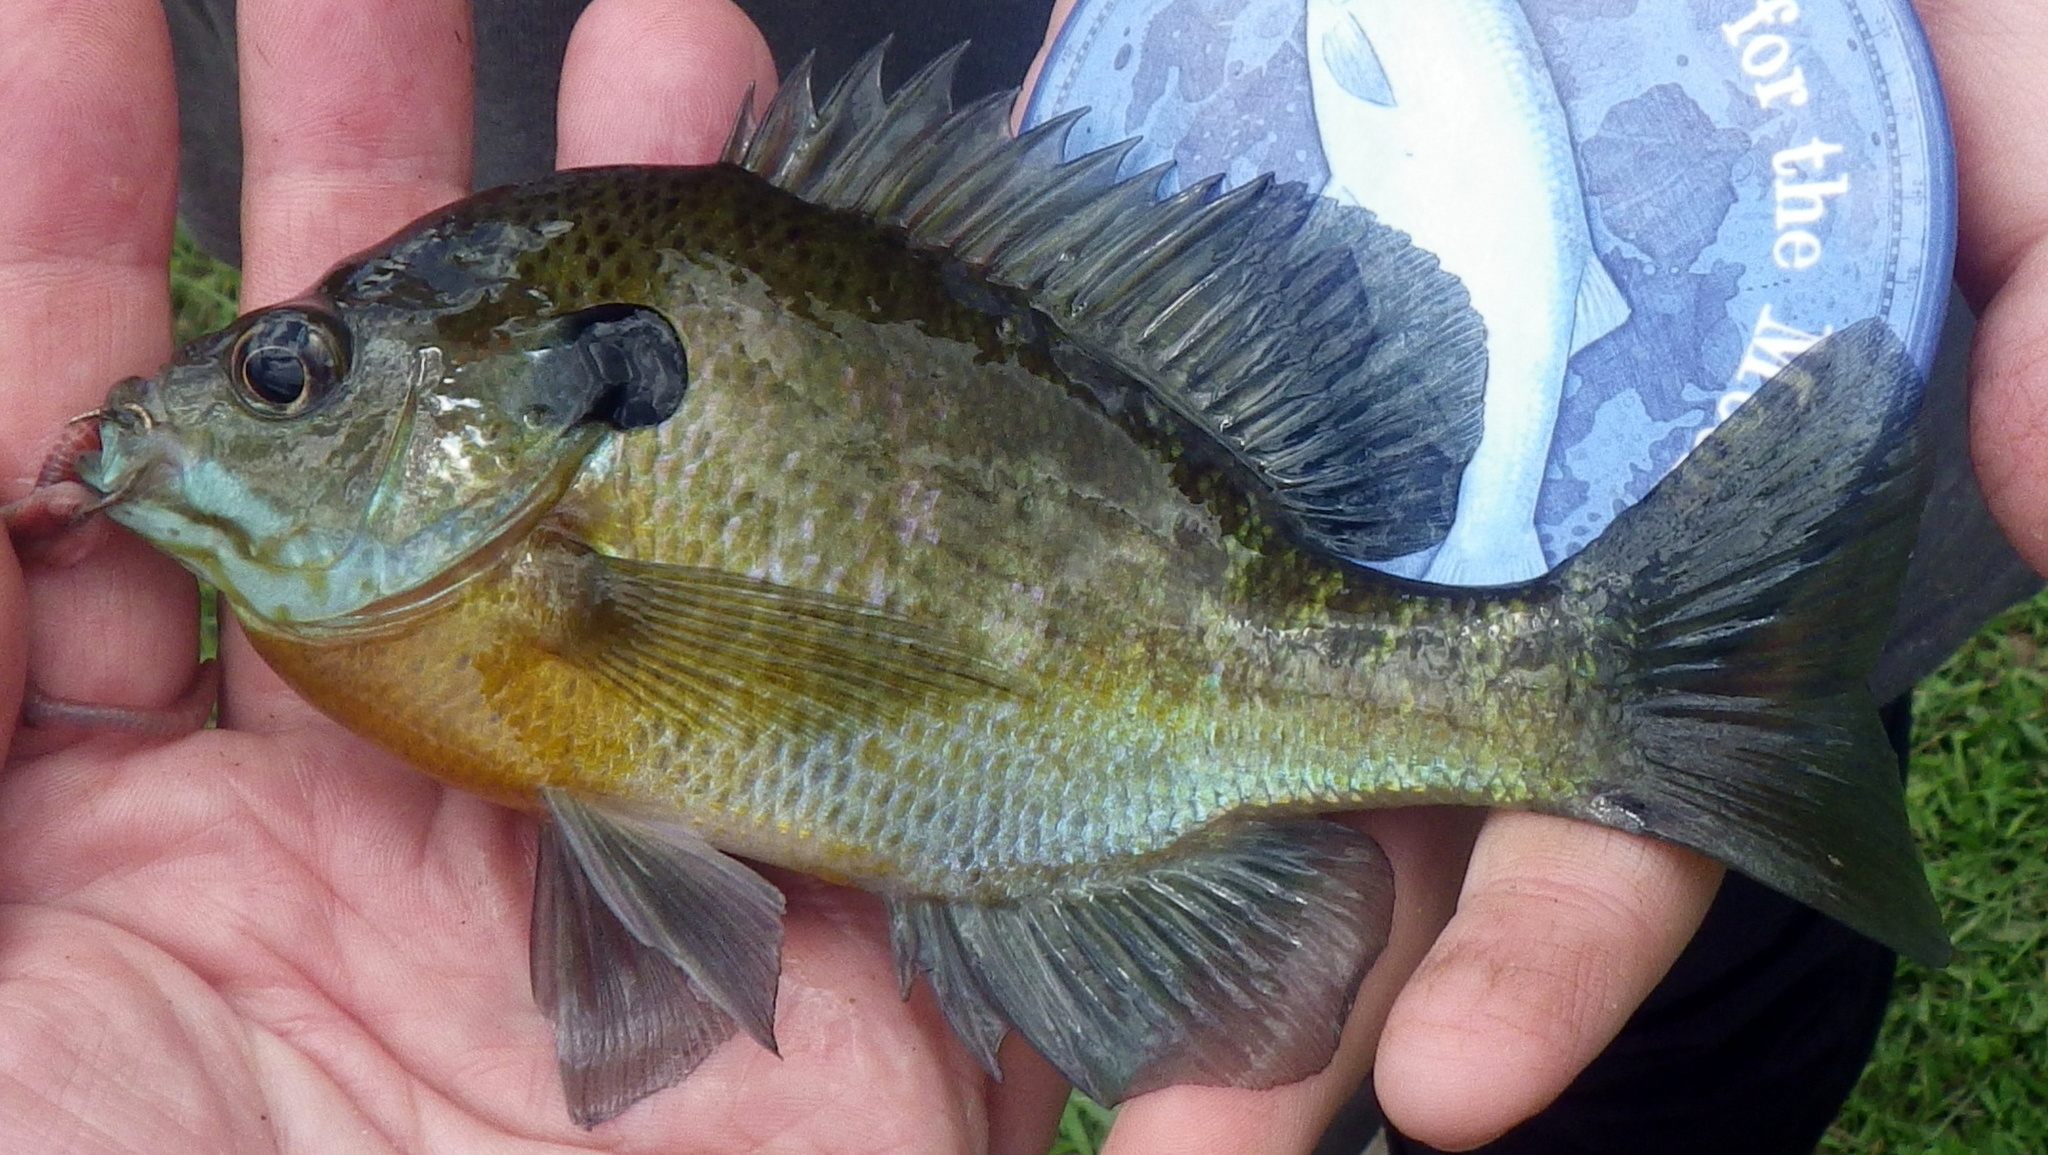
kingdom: Animalia
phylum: Chordata
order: Perciformes
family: Centrarchidae
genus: Lepomis
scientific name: Lepomis macrochirus
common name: Bluegill
